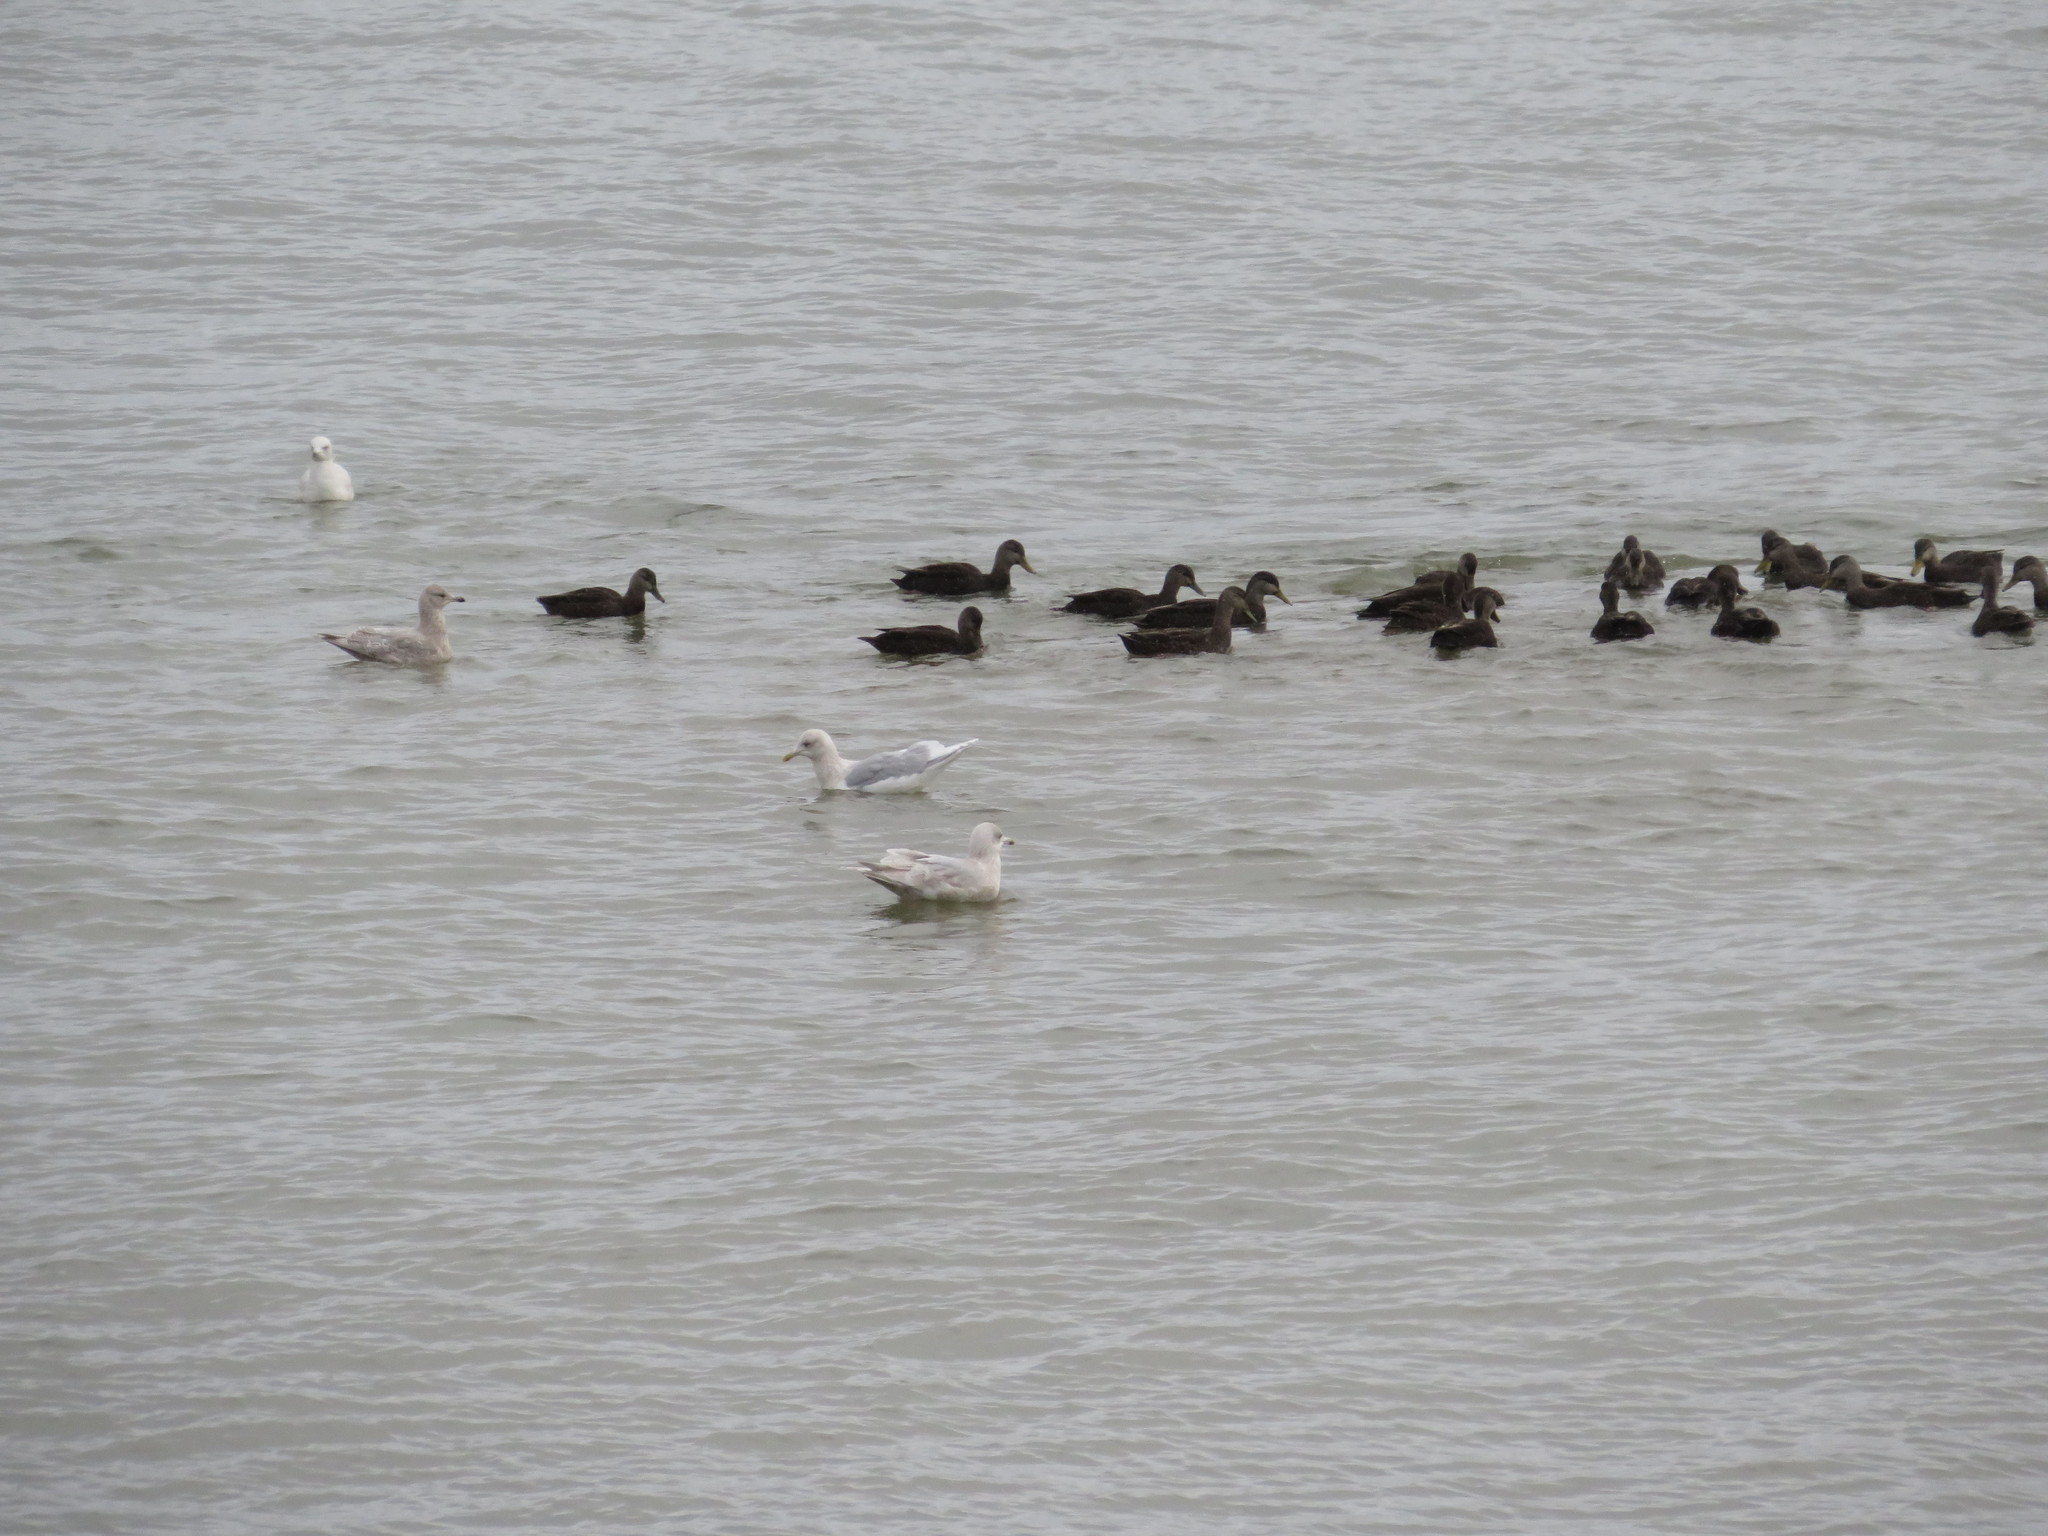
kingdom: Animalia
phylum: Chordata
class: Aves
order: Charadriiformes
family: Laridae
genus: Larus
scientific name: Larus glaucoides
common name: Iceland gull
